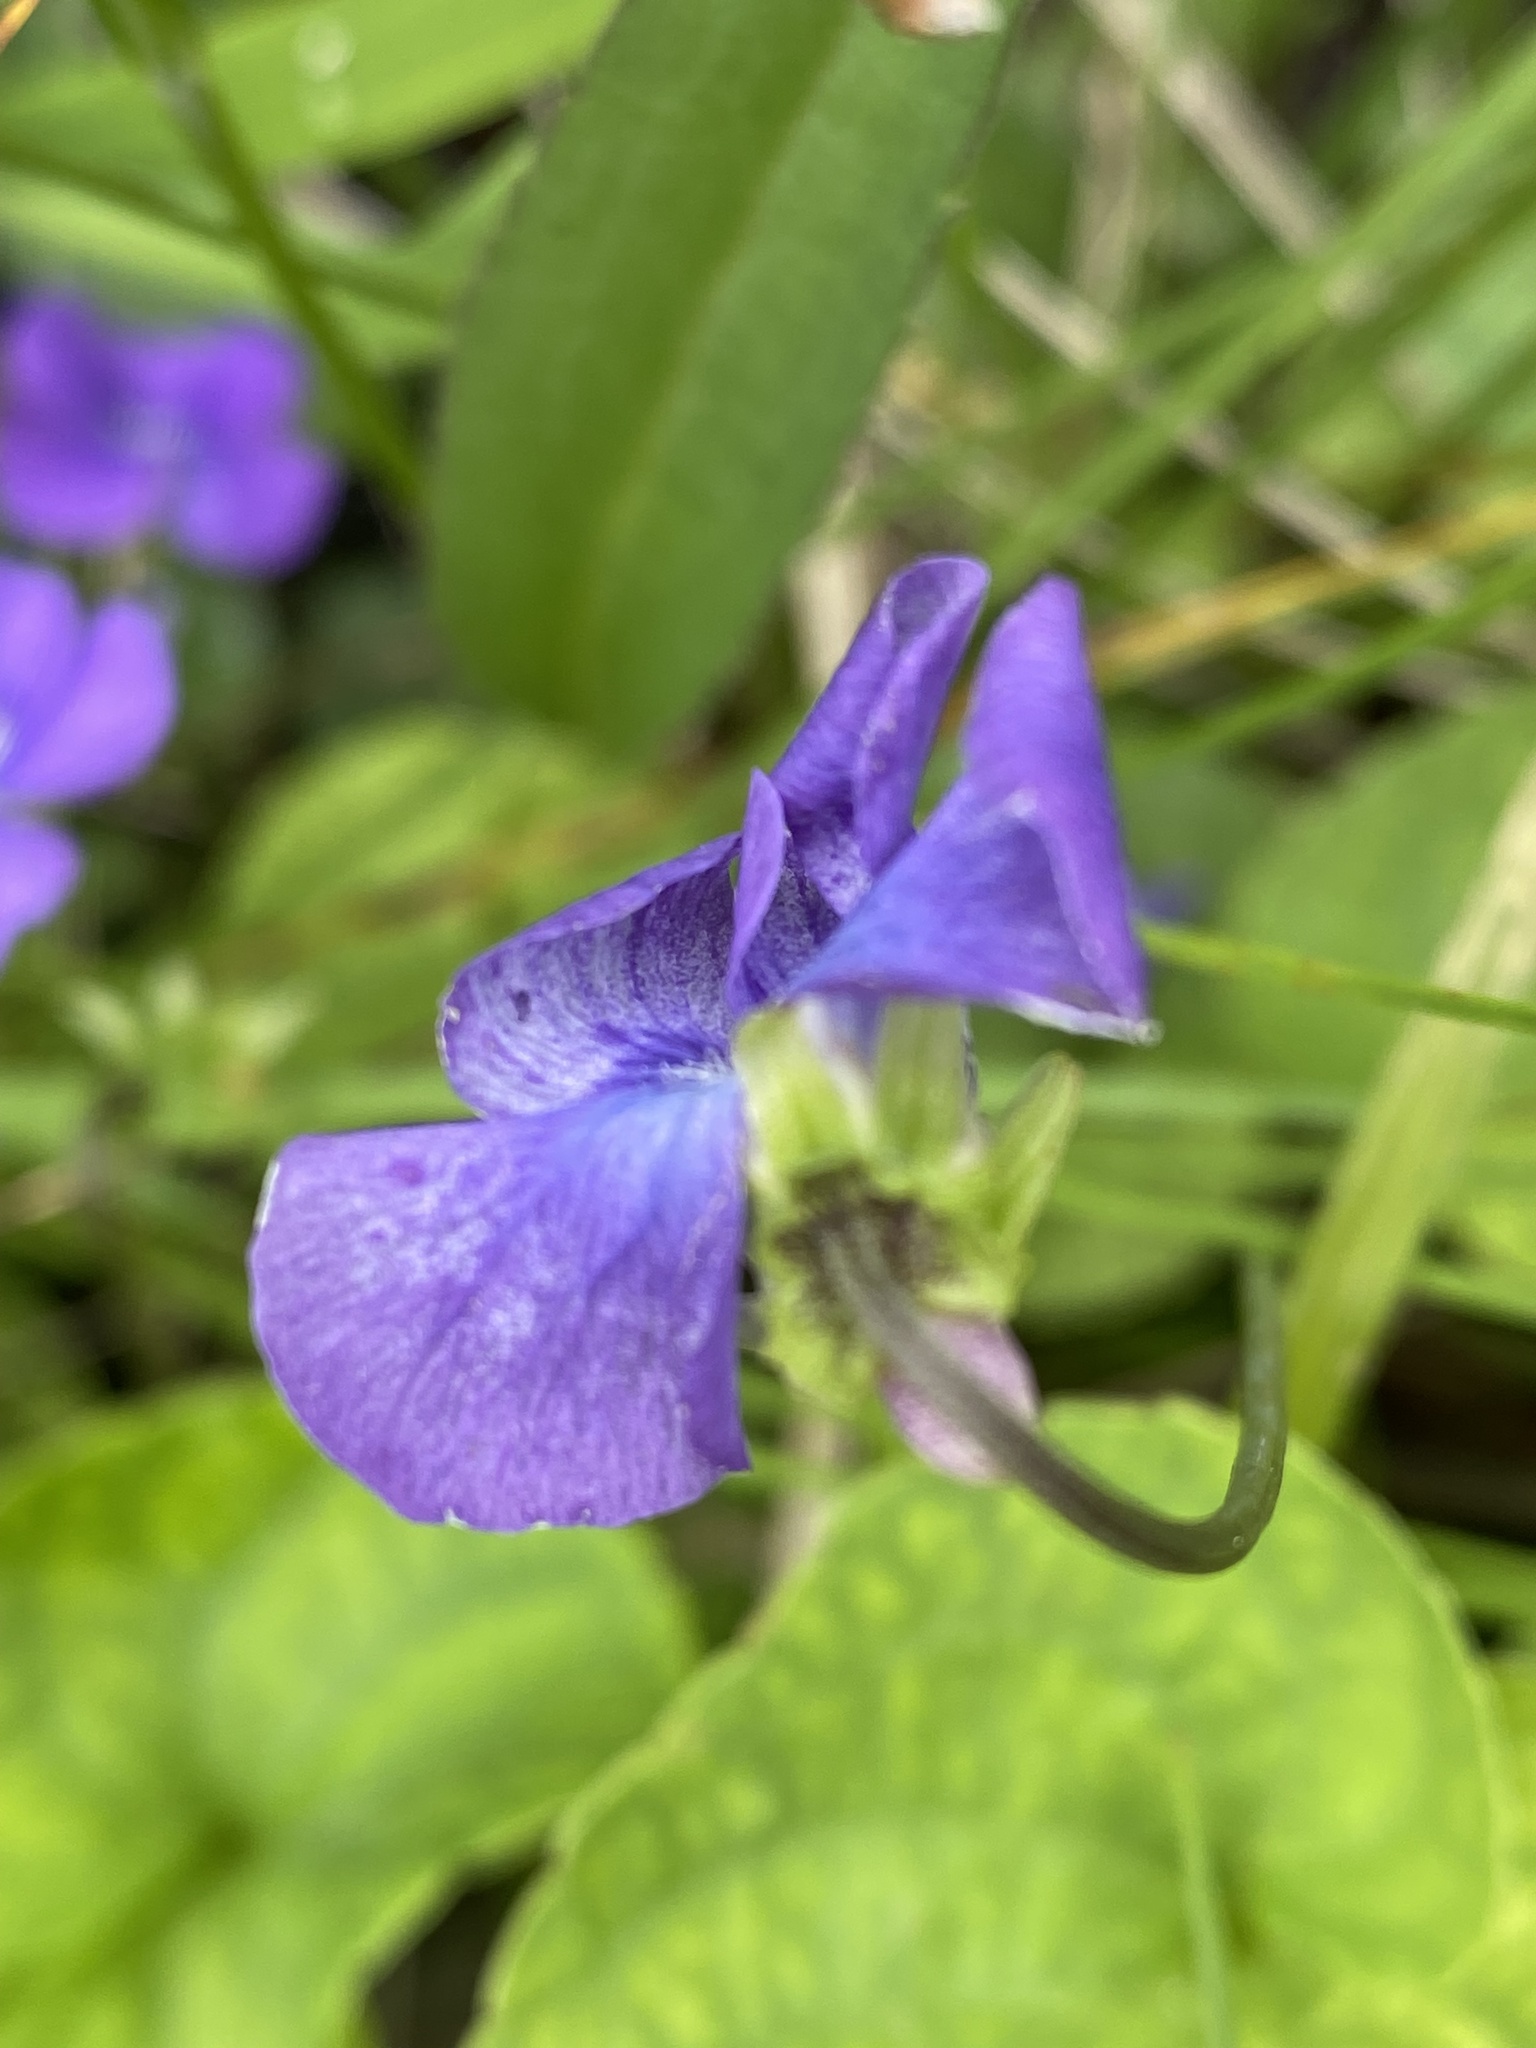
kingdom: Plantae
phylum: Tracheophyta
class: Magnoliopsida
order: Malpighiales
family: Violaceae
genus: Viola
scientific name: Viola sororia
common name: Dooryard violet
